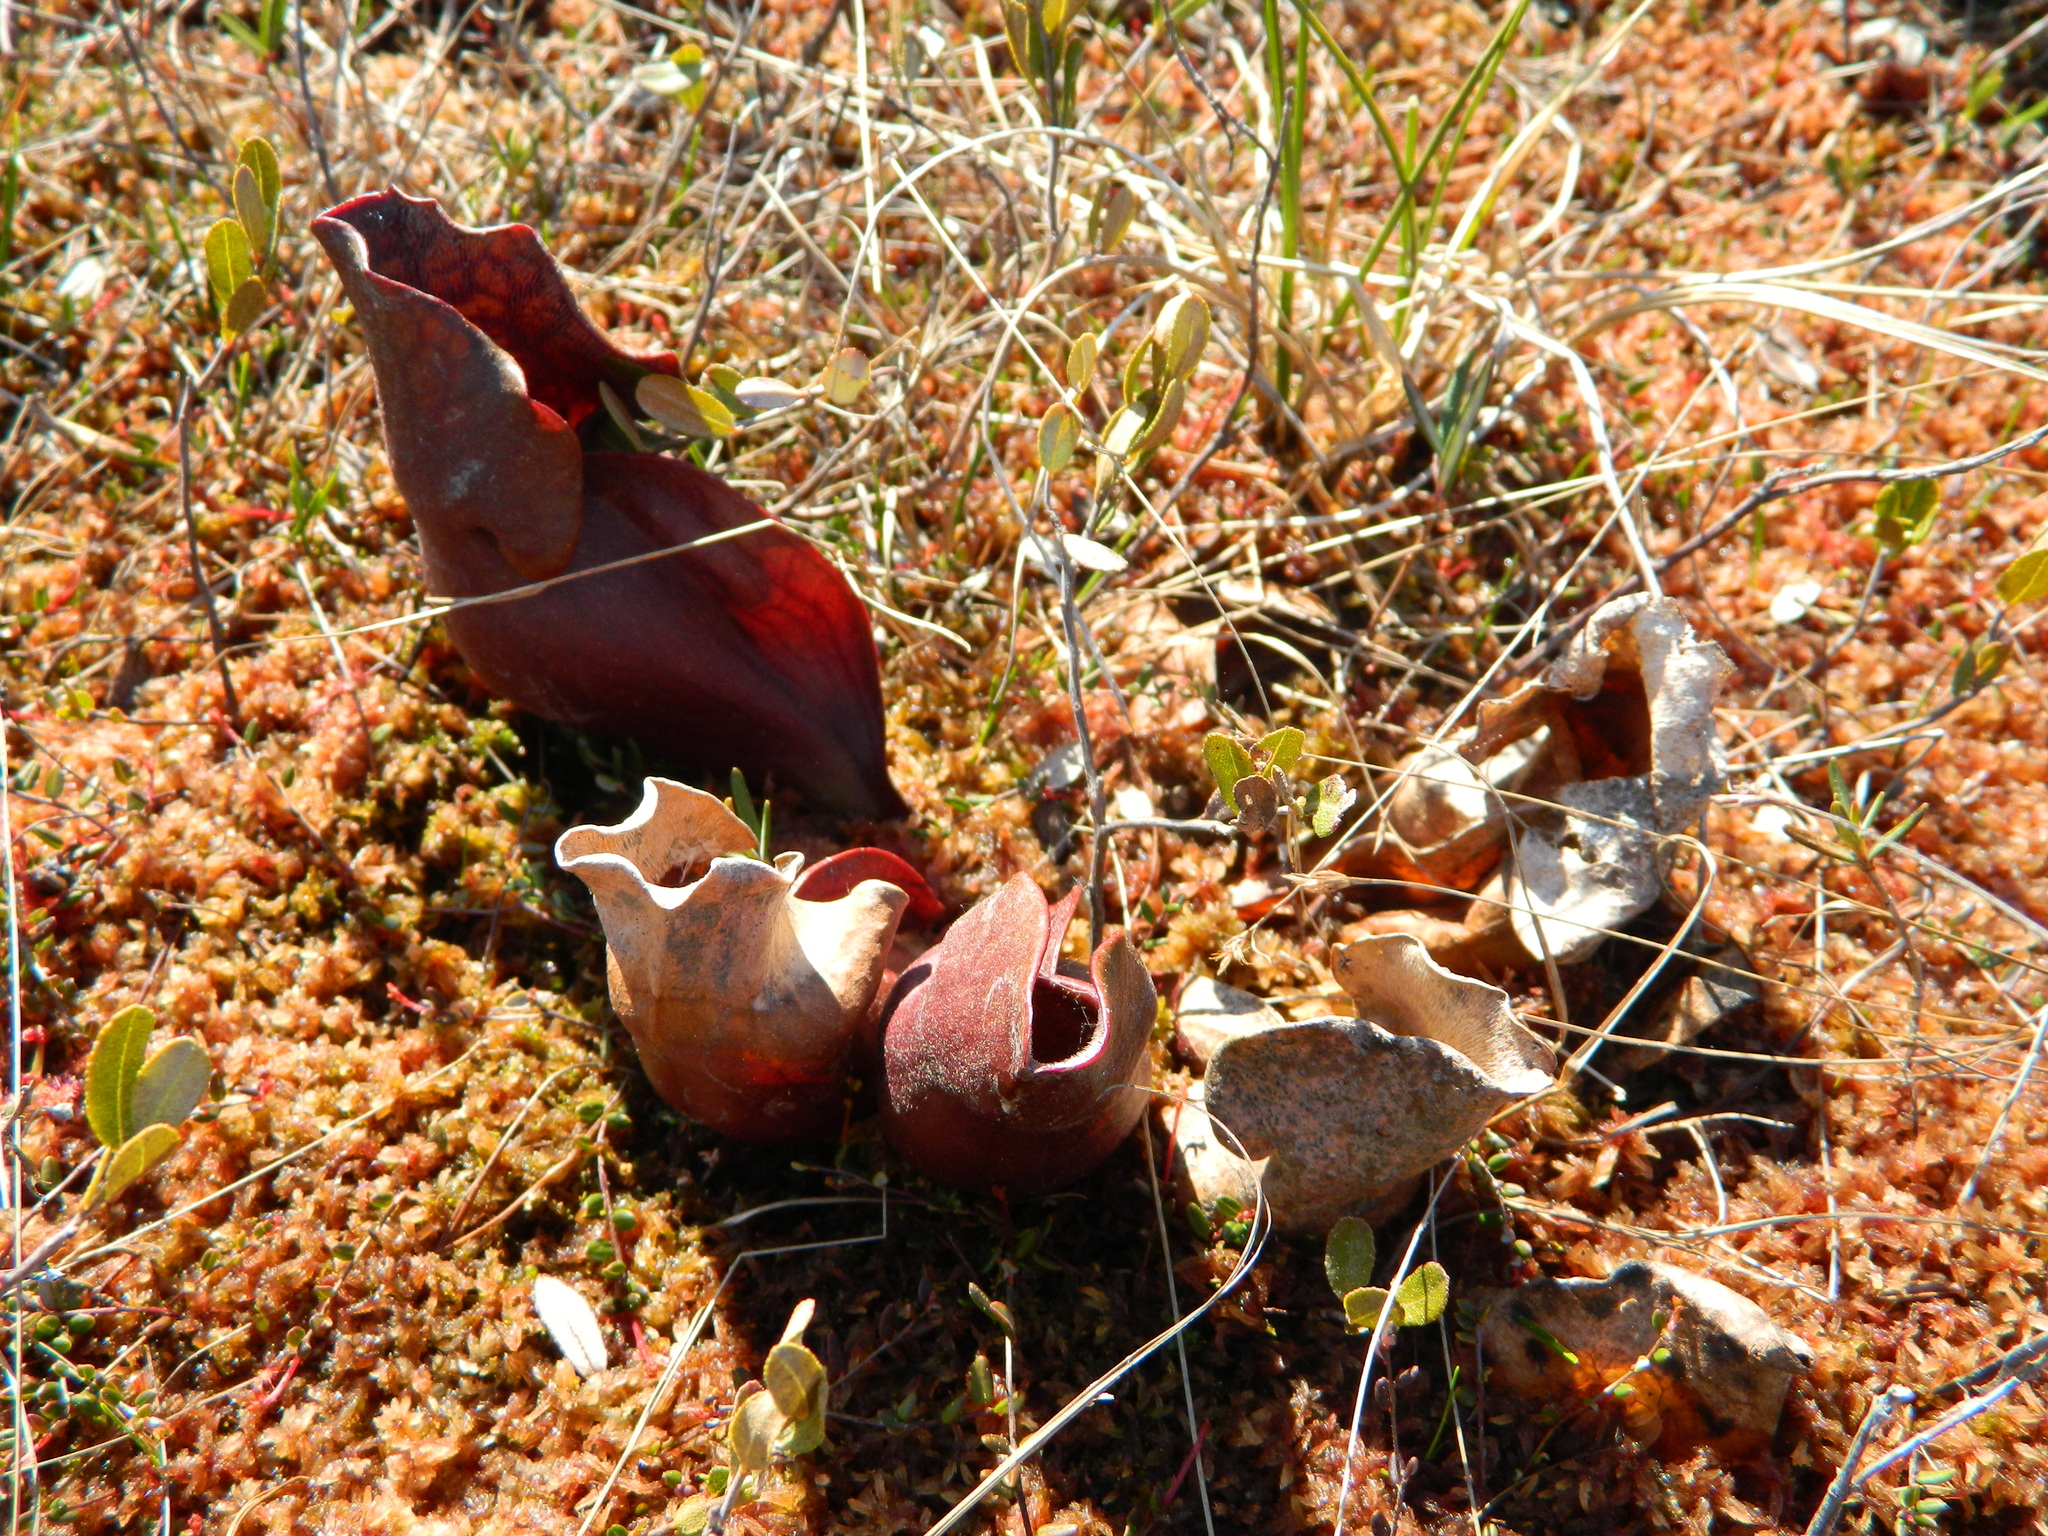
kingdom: Plantae
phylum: Tracheophyta
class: Magnoliopsida
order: Ericales
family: Sarraceniaceae
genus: Sarracenia
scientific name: Sarracenia purpurea
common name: Pitcherplant
